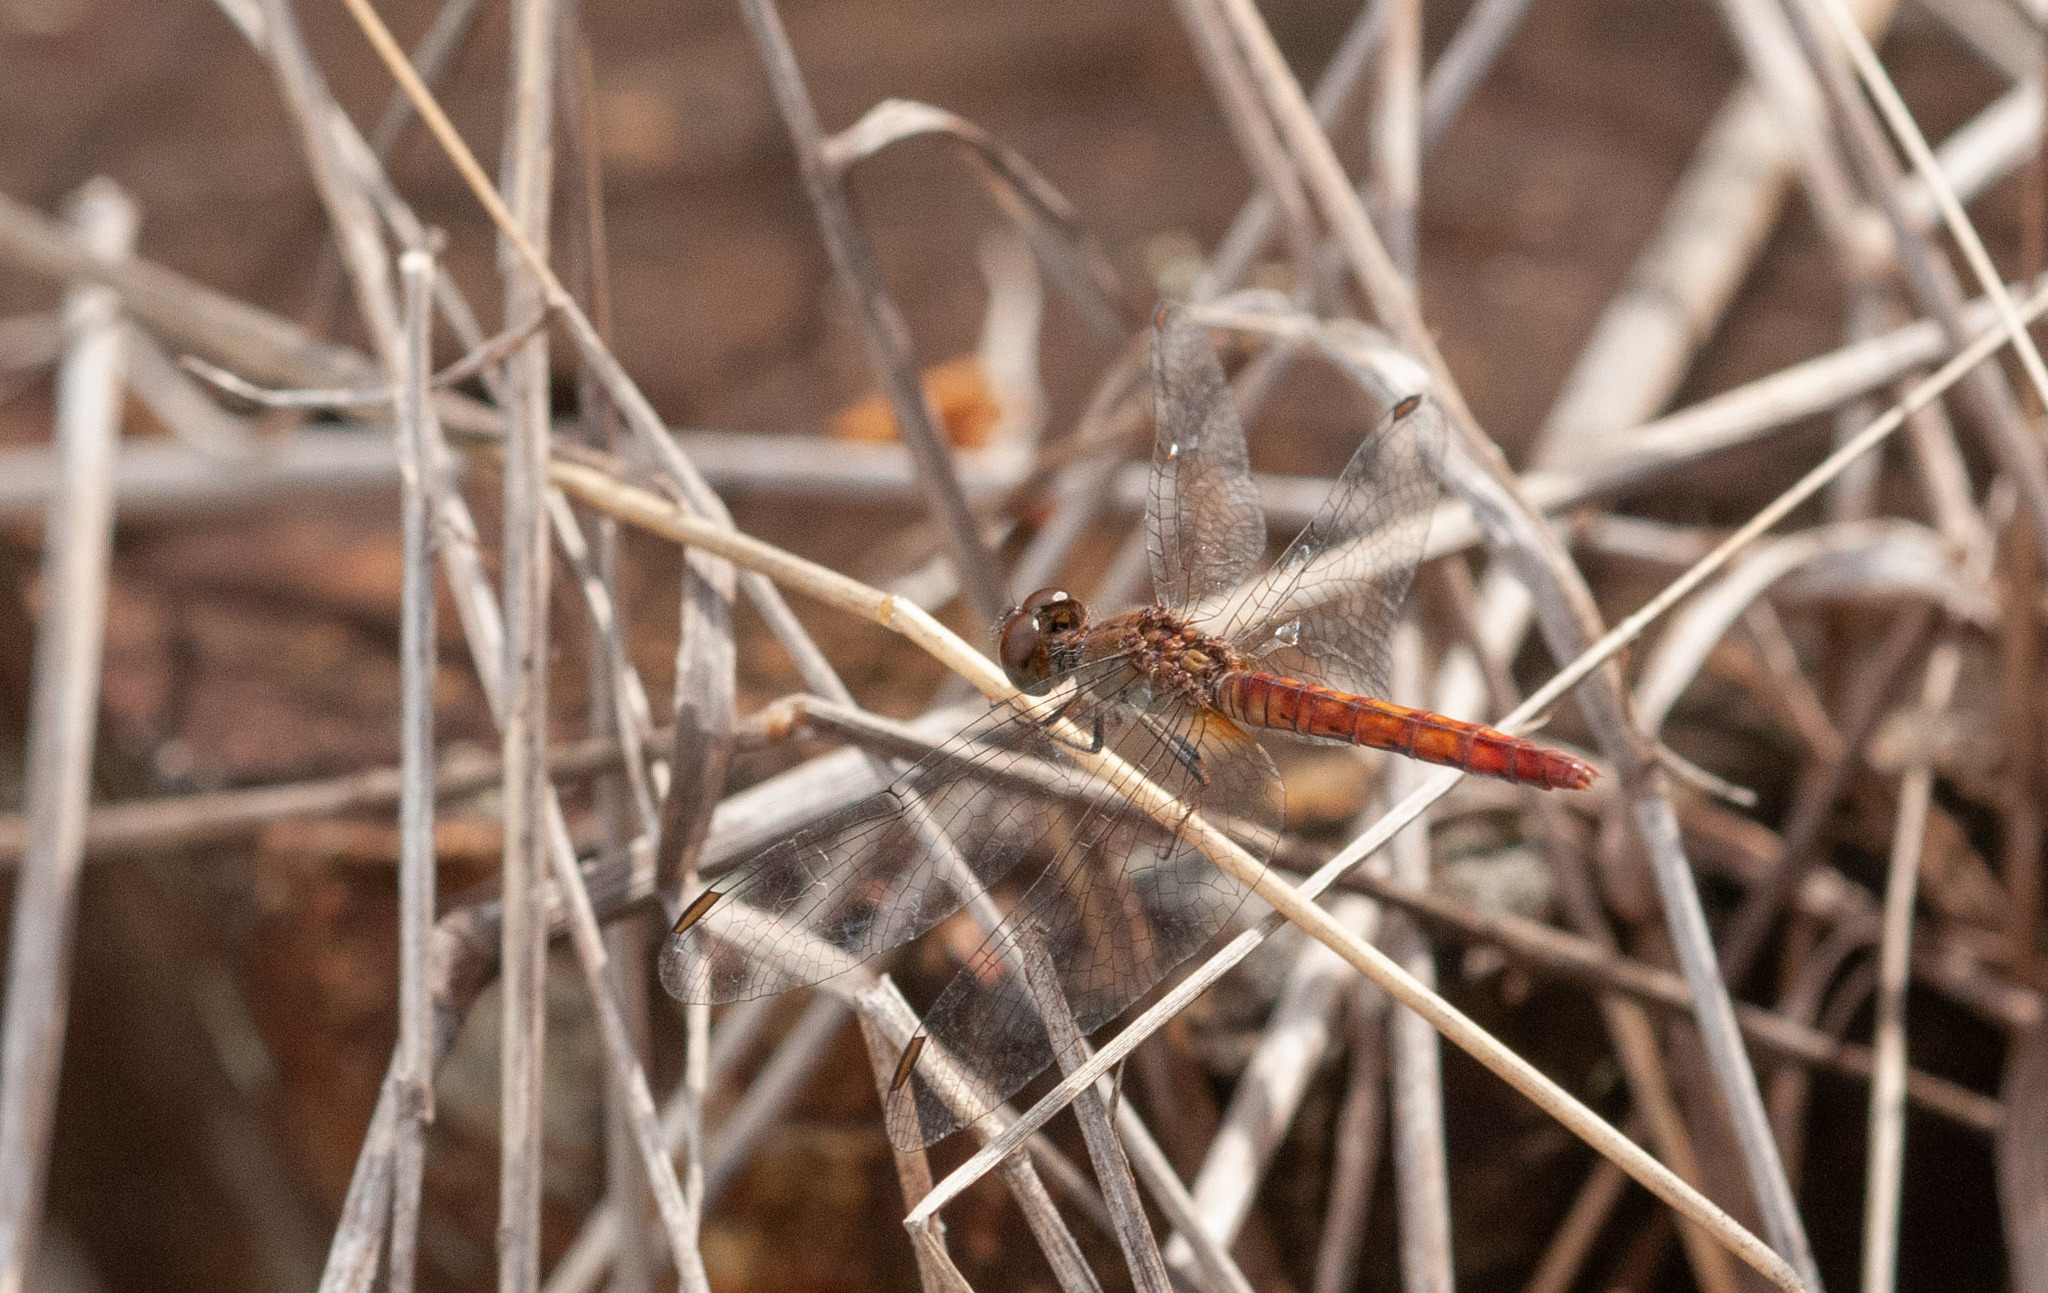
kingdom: Animalia
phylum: Arthropoda
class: Insecta
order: Odonata
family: Libellulidae
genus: Nannodiplax
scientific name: Nannodiplax rubra
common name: Pygmy percher
